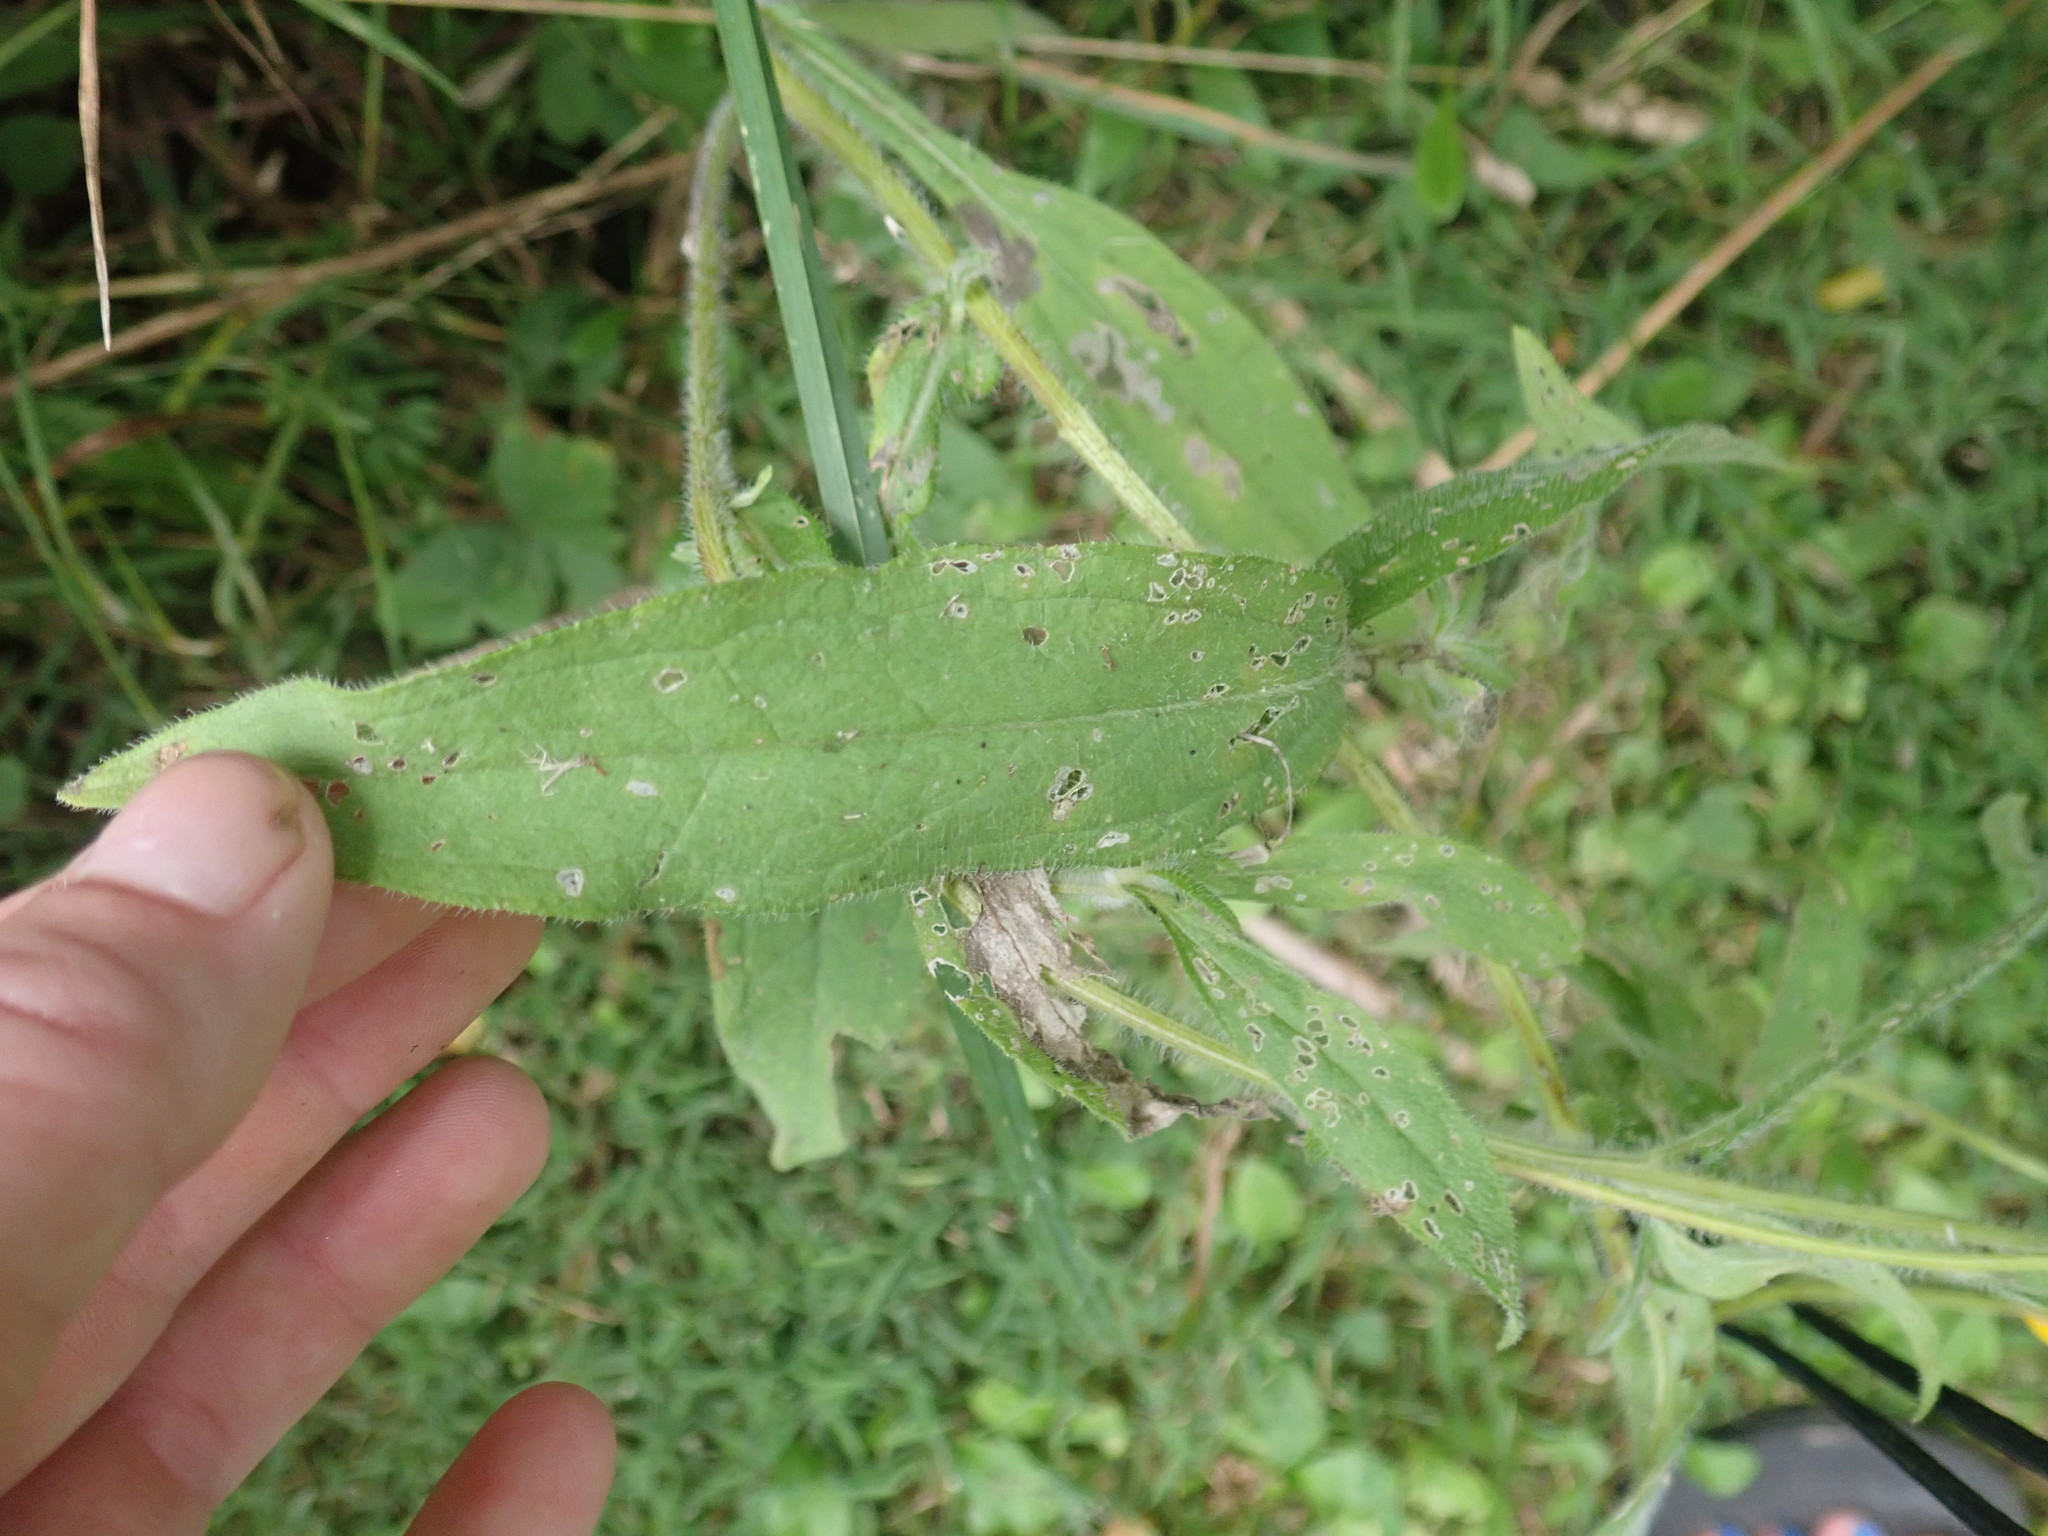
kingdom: Plantae
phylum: Tracheophyta
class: Magnoliopsida
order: Asterales
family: Asteraceae
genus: Rudbeckia
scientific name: Rudbeckia hirta
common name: Black-eyed-susan
